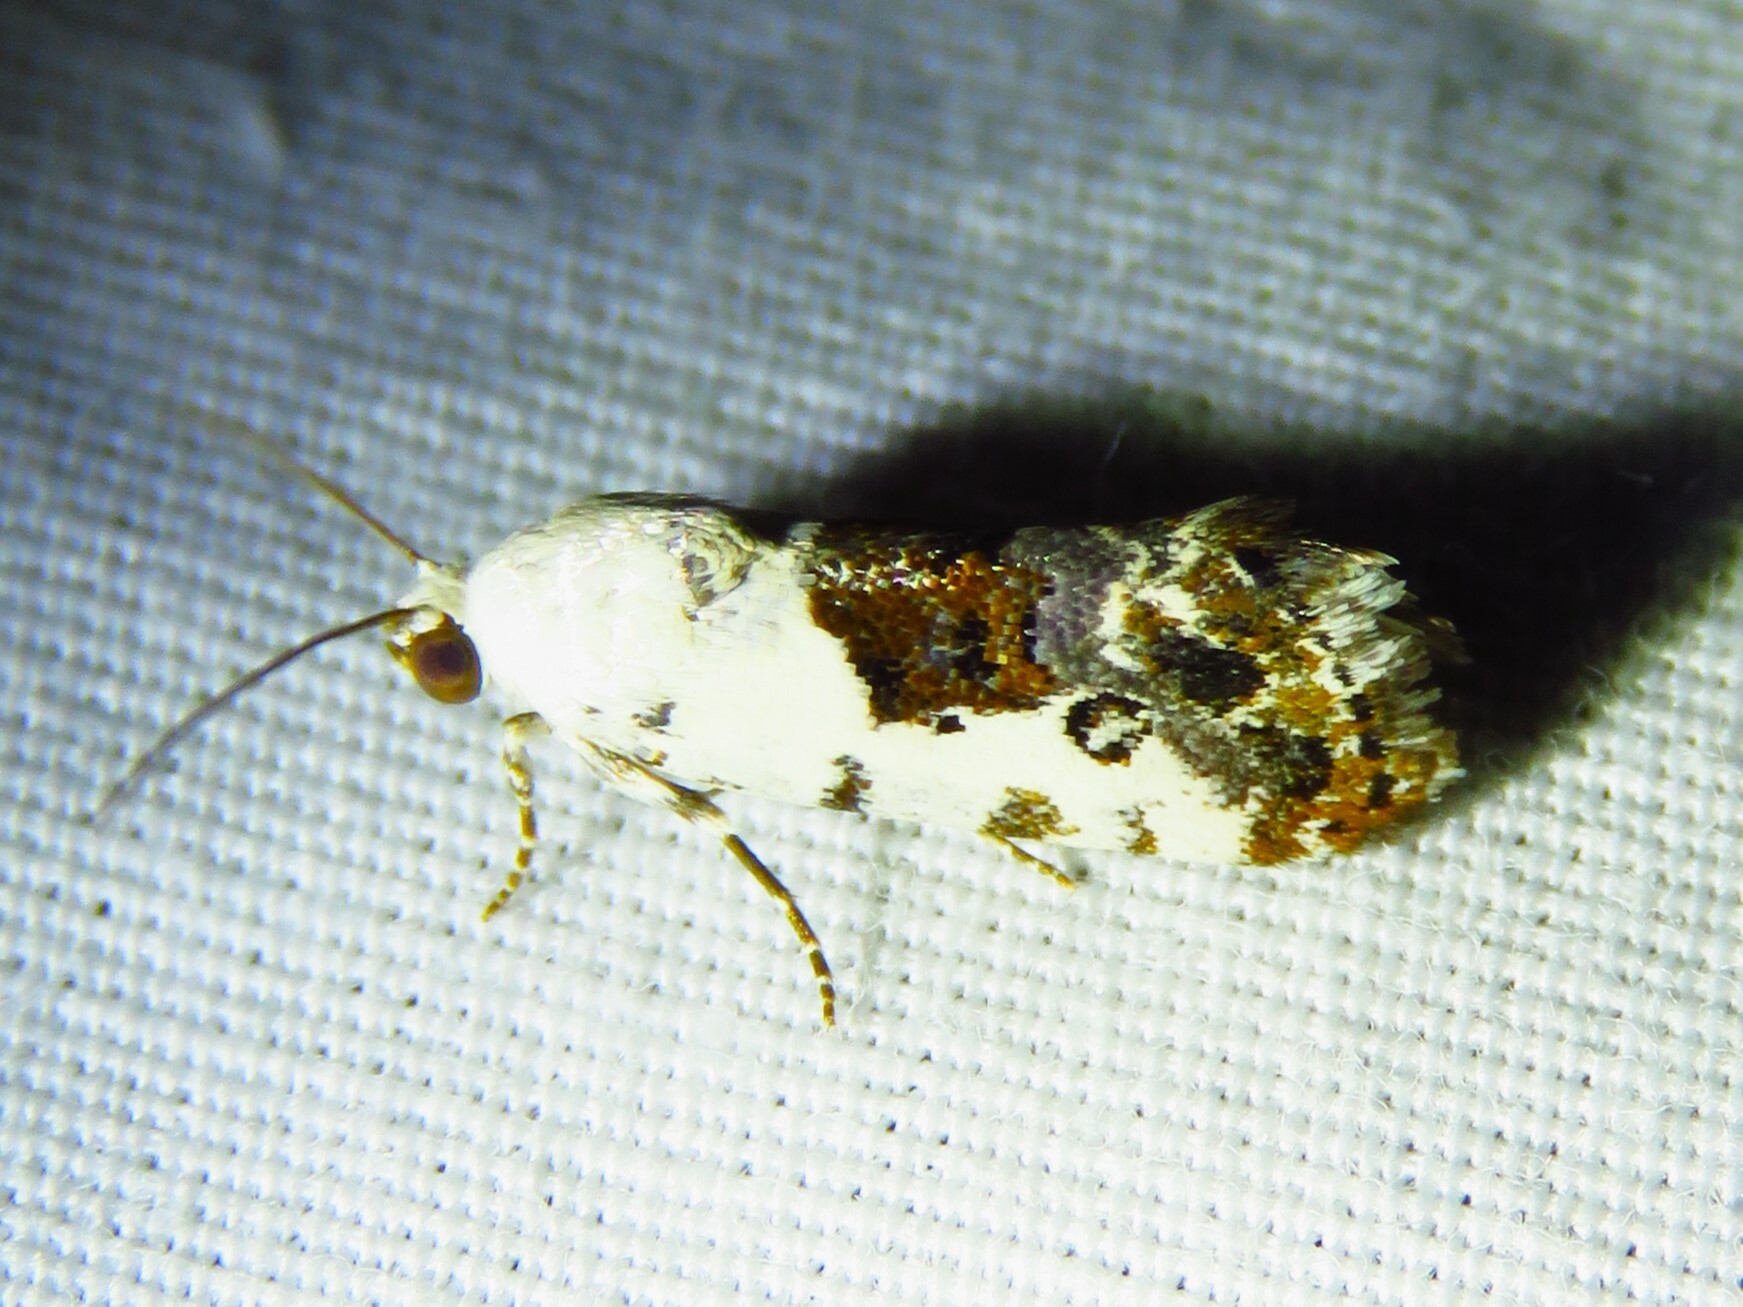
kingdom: Animalia
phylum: Arthropoda
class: Insecta
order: Lepidoptera
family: Noctuidae
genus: Acontia
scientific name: Acontia phecolisca
